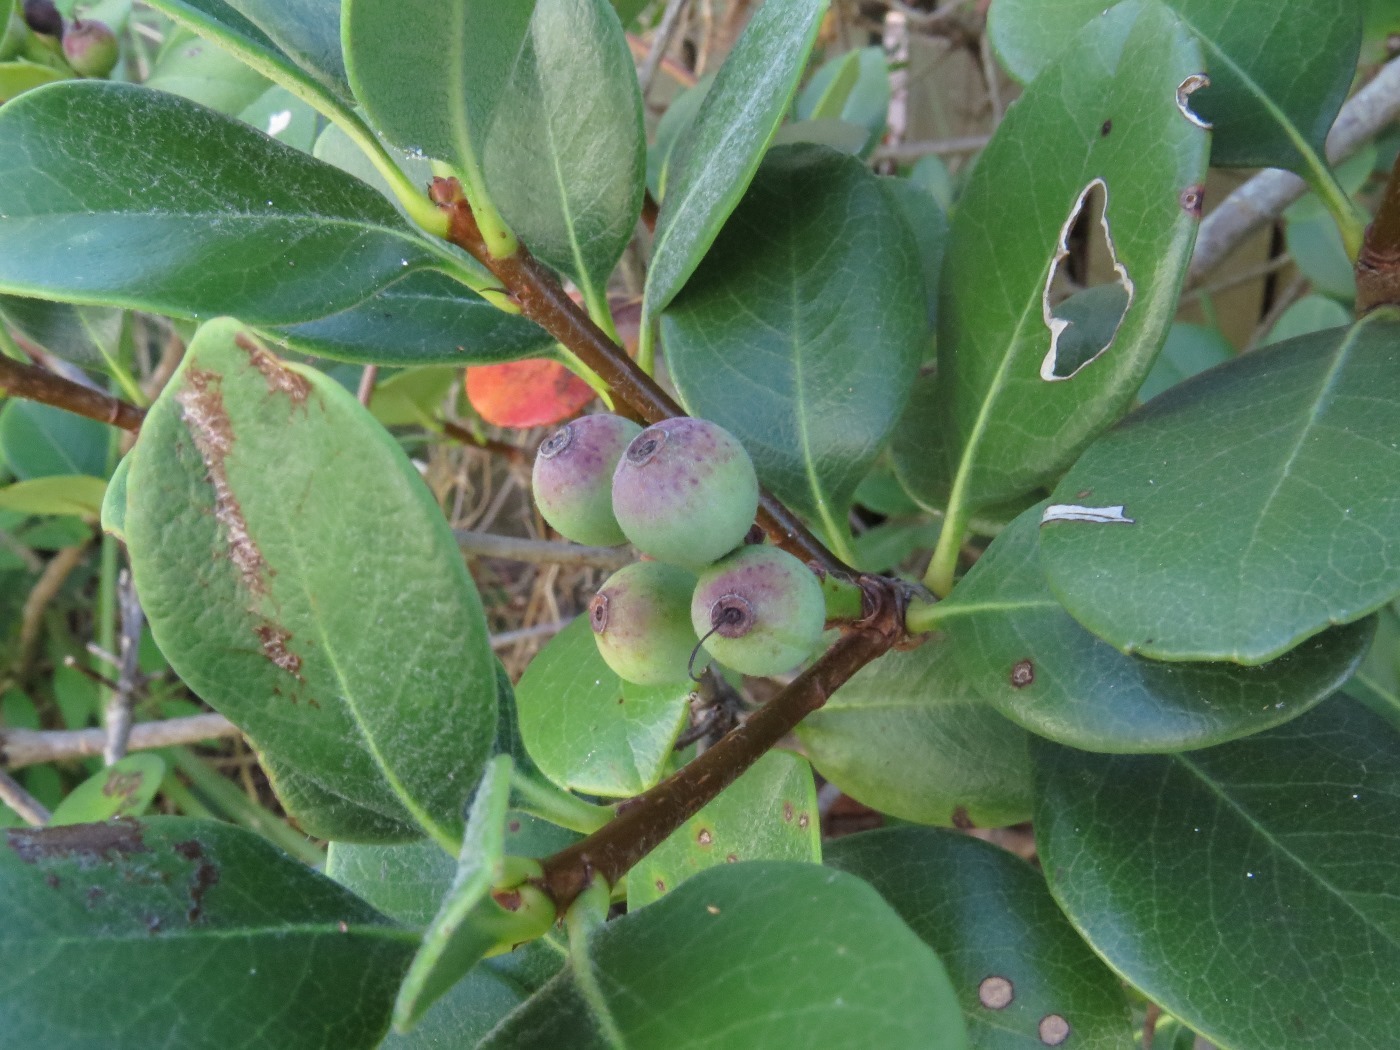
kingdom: Plantae
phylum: Tracheophyta
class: Magnoliopsida
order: Rosales
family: Rosaceae
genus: Rhaphiolepis
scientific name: Rhaphiolepis indica
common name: India-hawthorn
